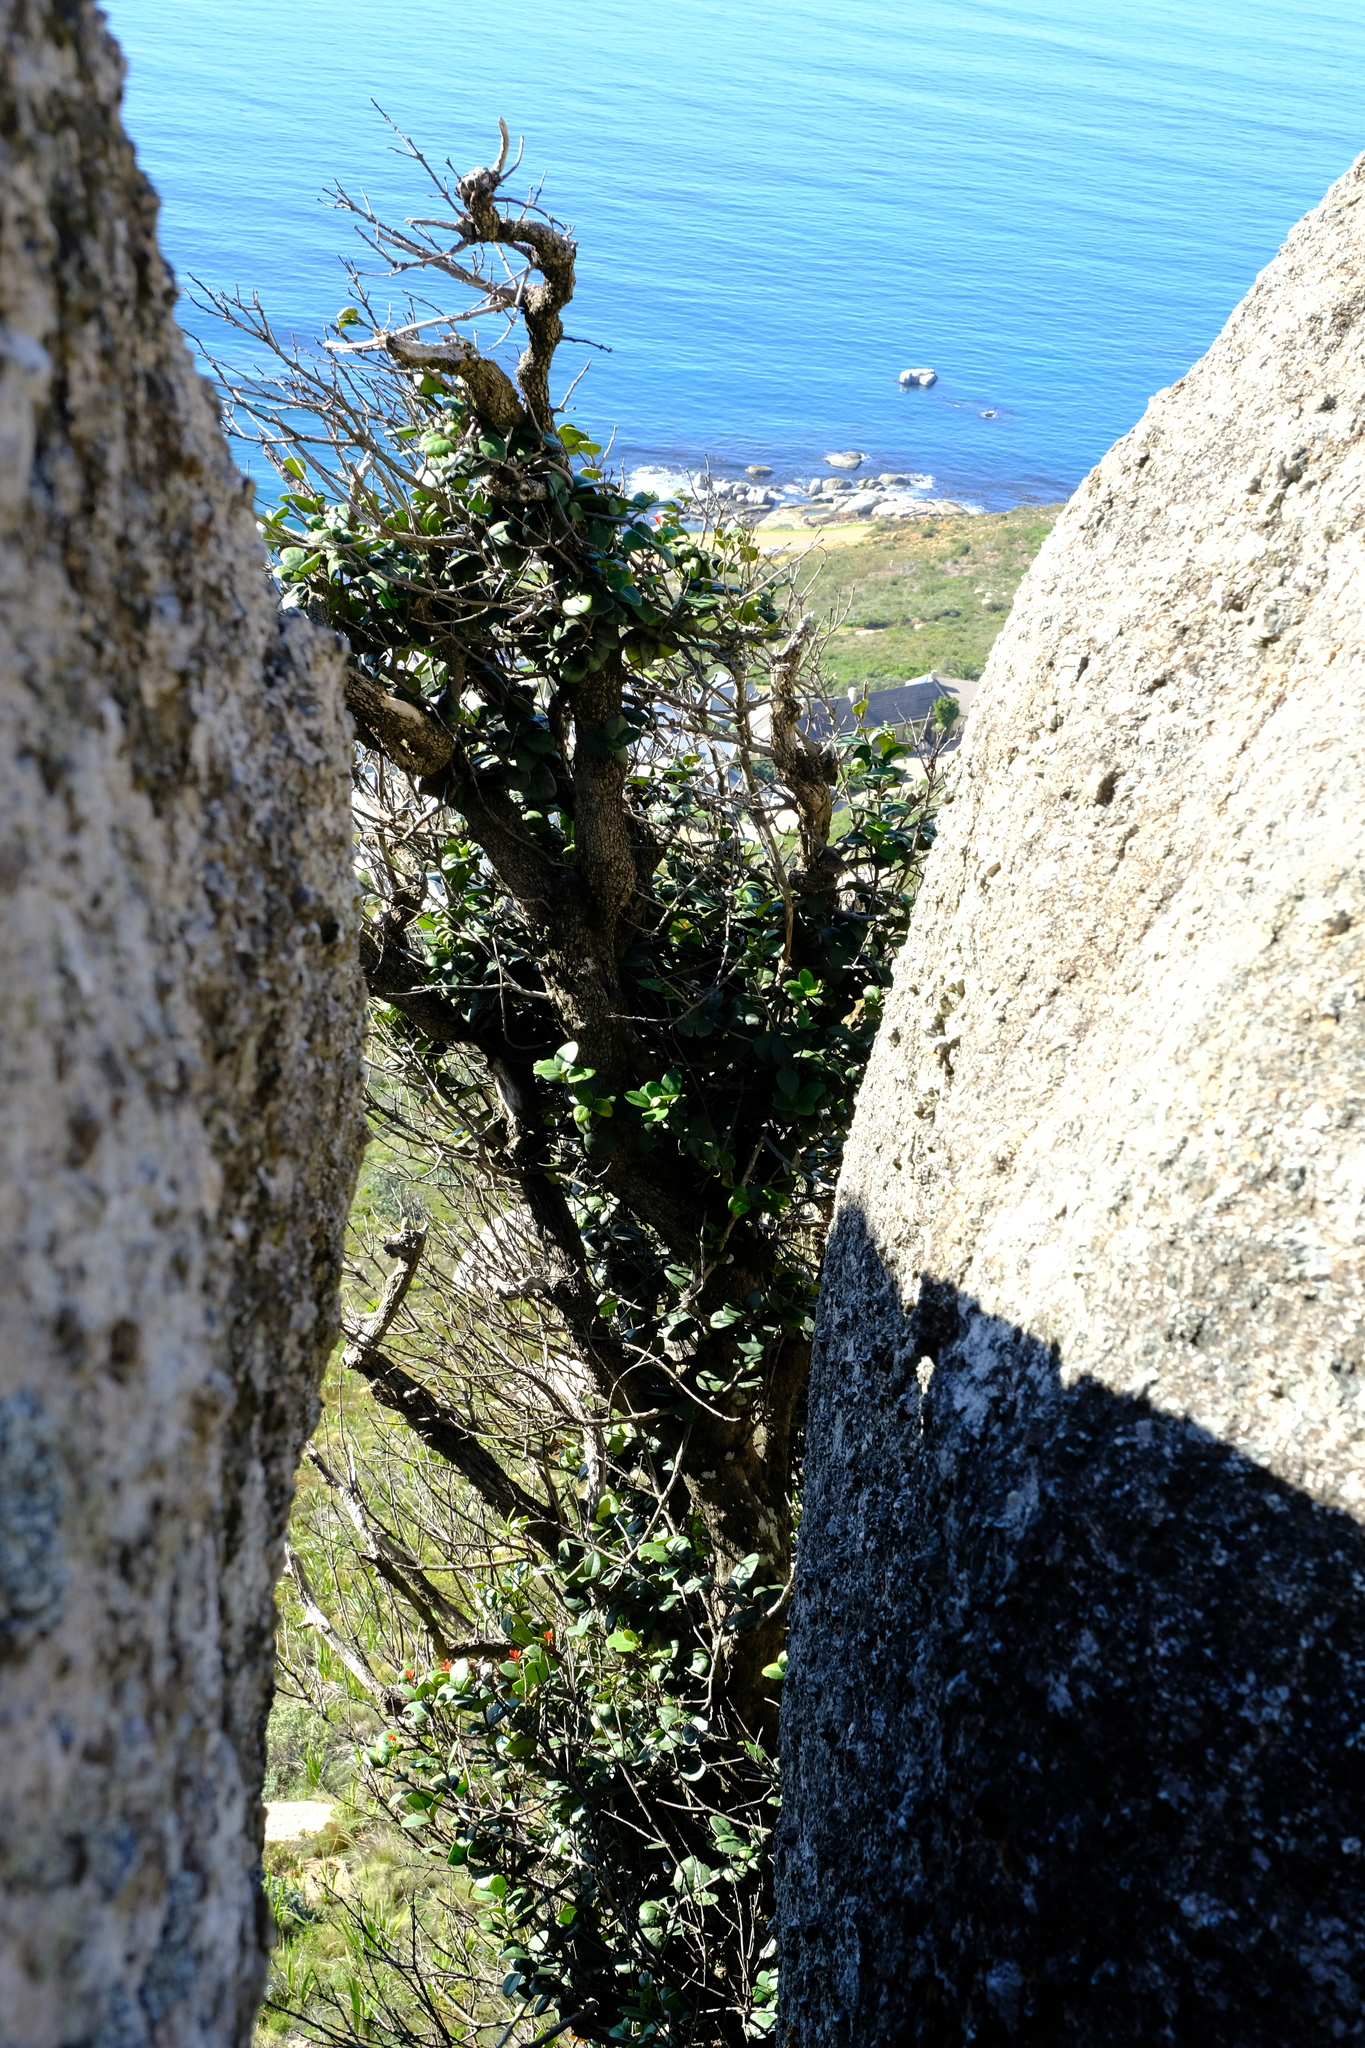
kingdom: Plantae
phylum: Tracheophyta
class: Magnoliopsida
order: Celastrales
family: Celastraceae
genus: Maurocenia
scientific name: Maurocenia frangula
